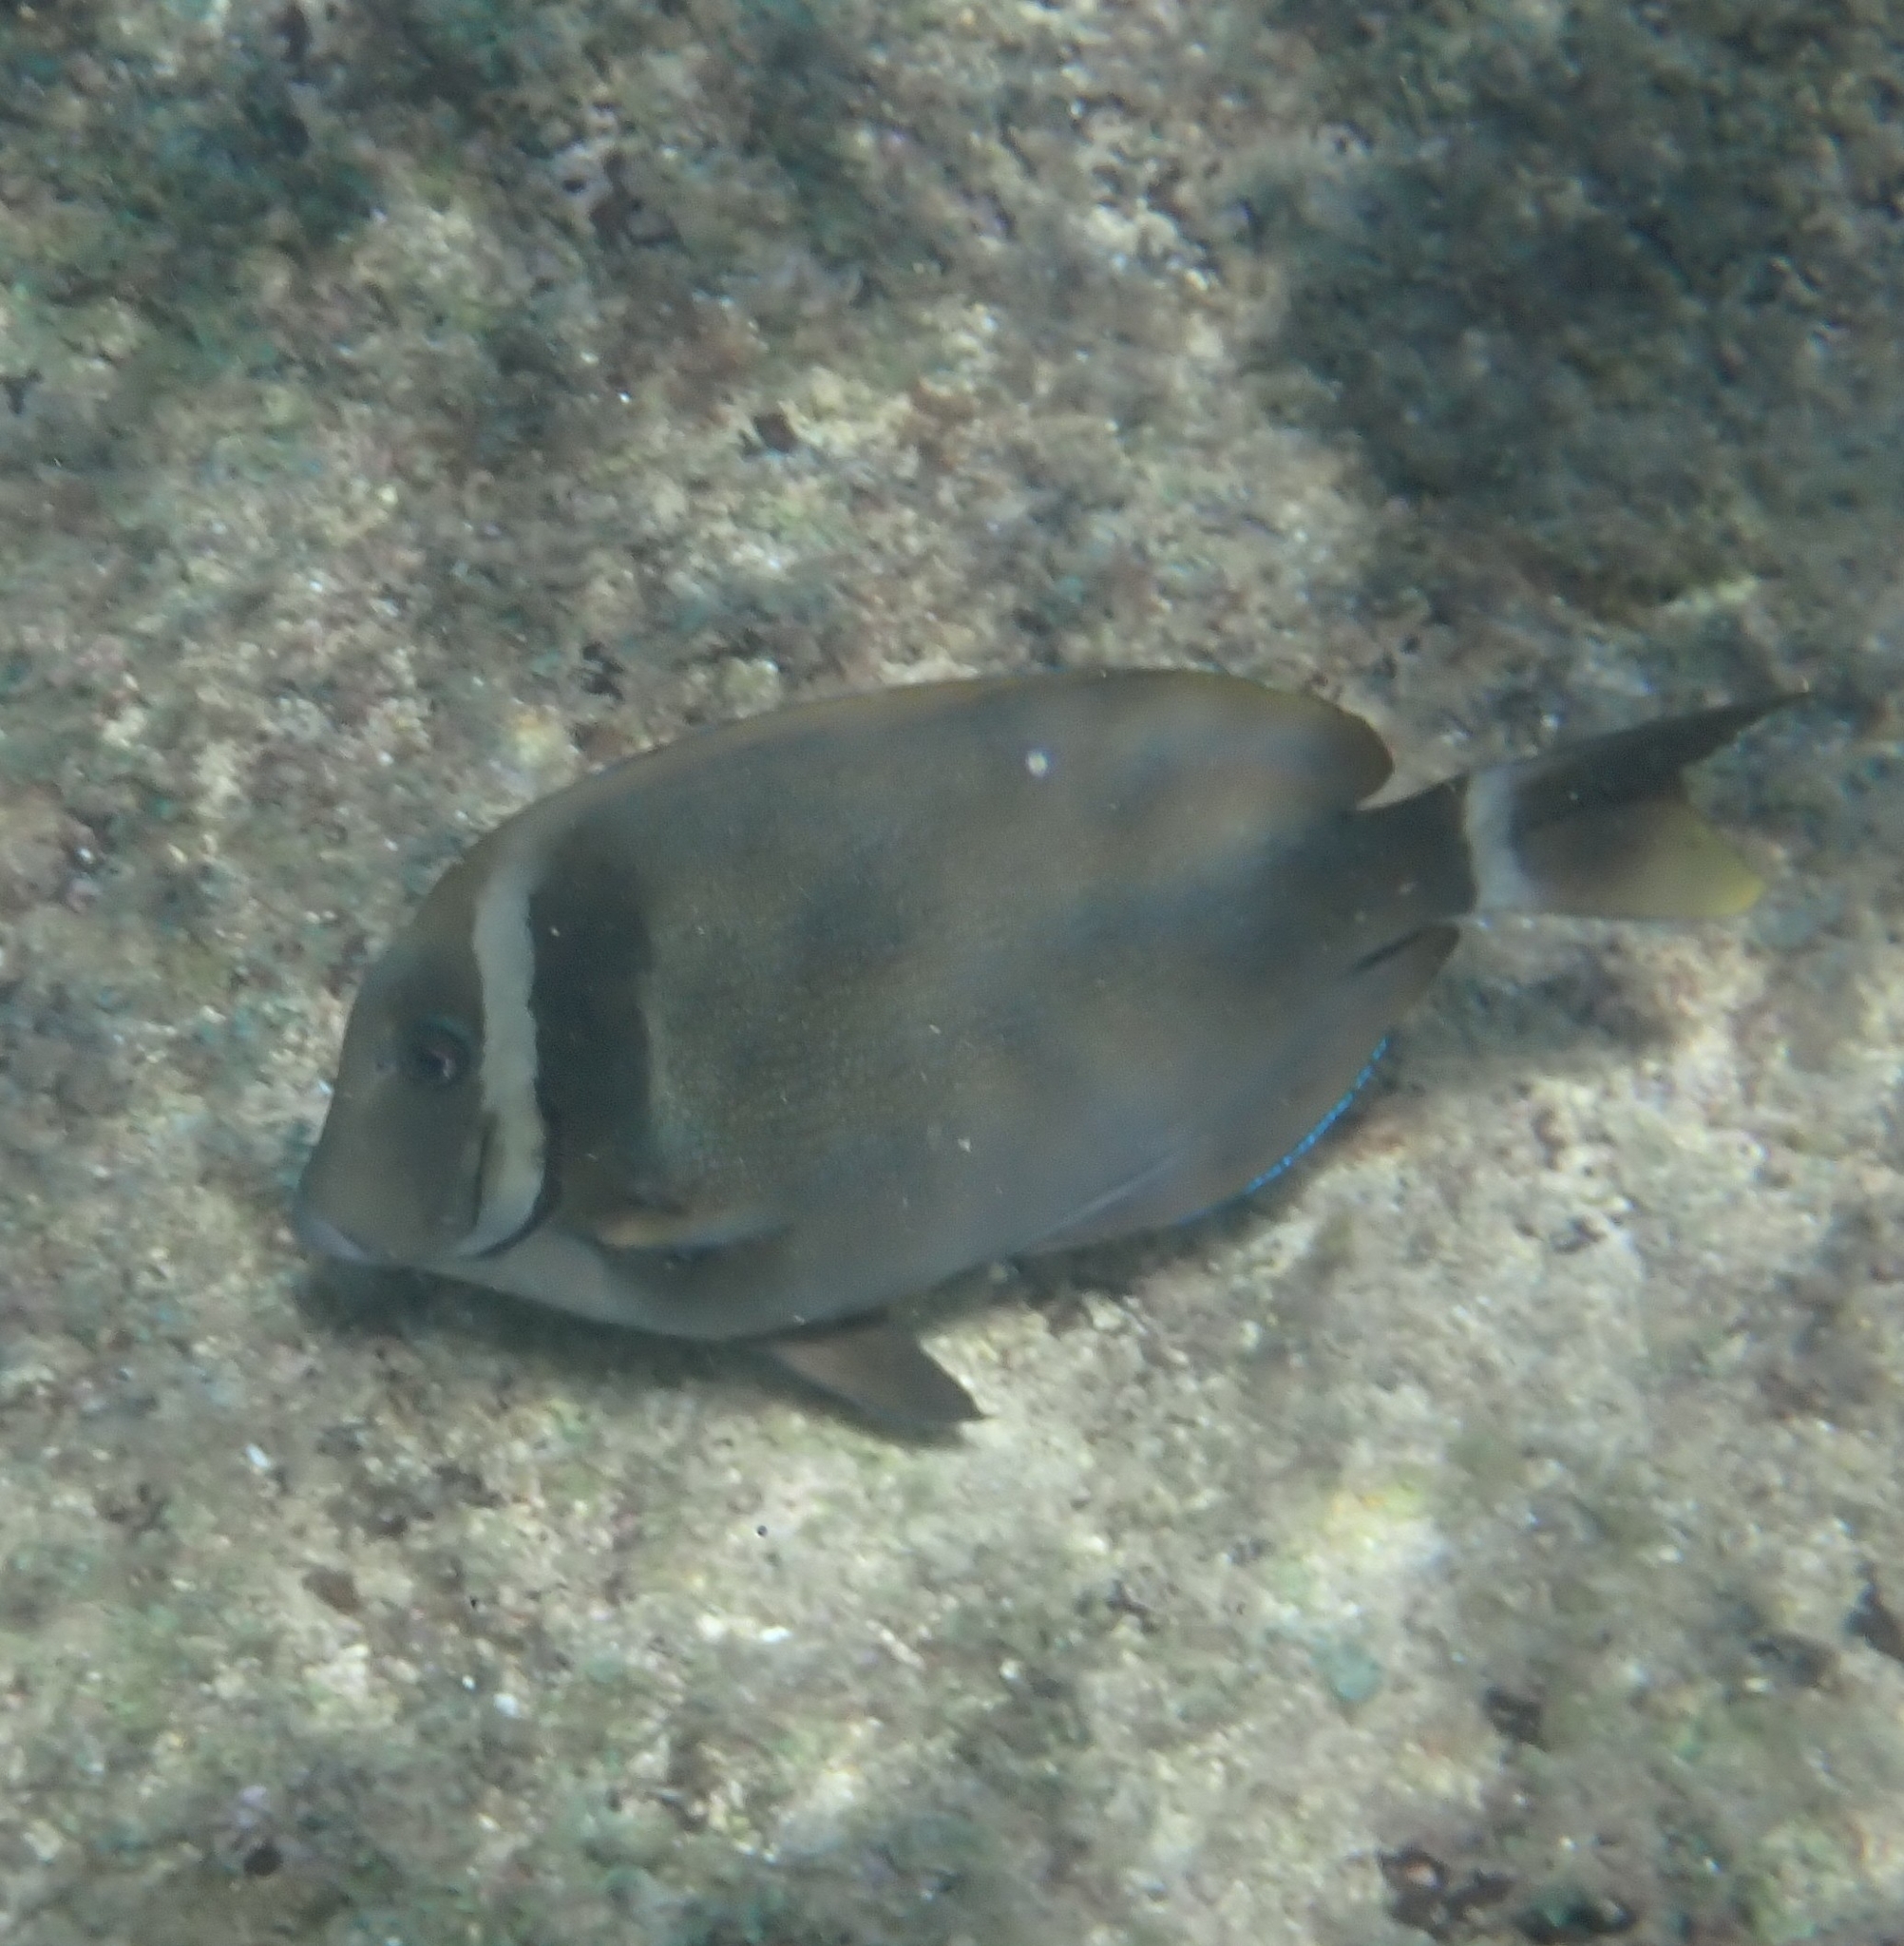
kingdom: Animalia
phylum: Chordata
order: Perciformes
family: Acanthuridae
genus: Acanthurus
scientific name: Acanthurus leucopareius
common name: Head-band surgeonfish
